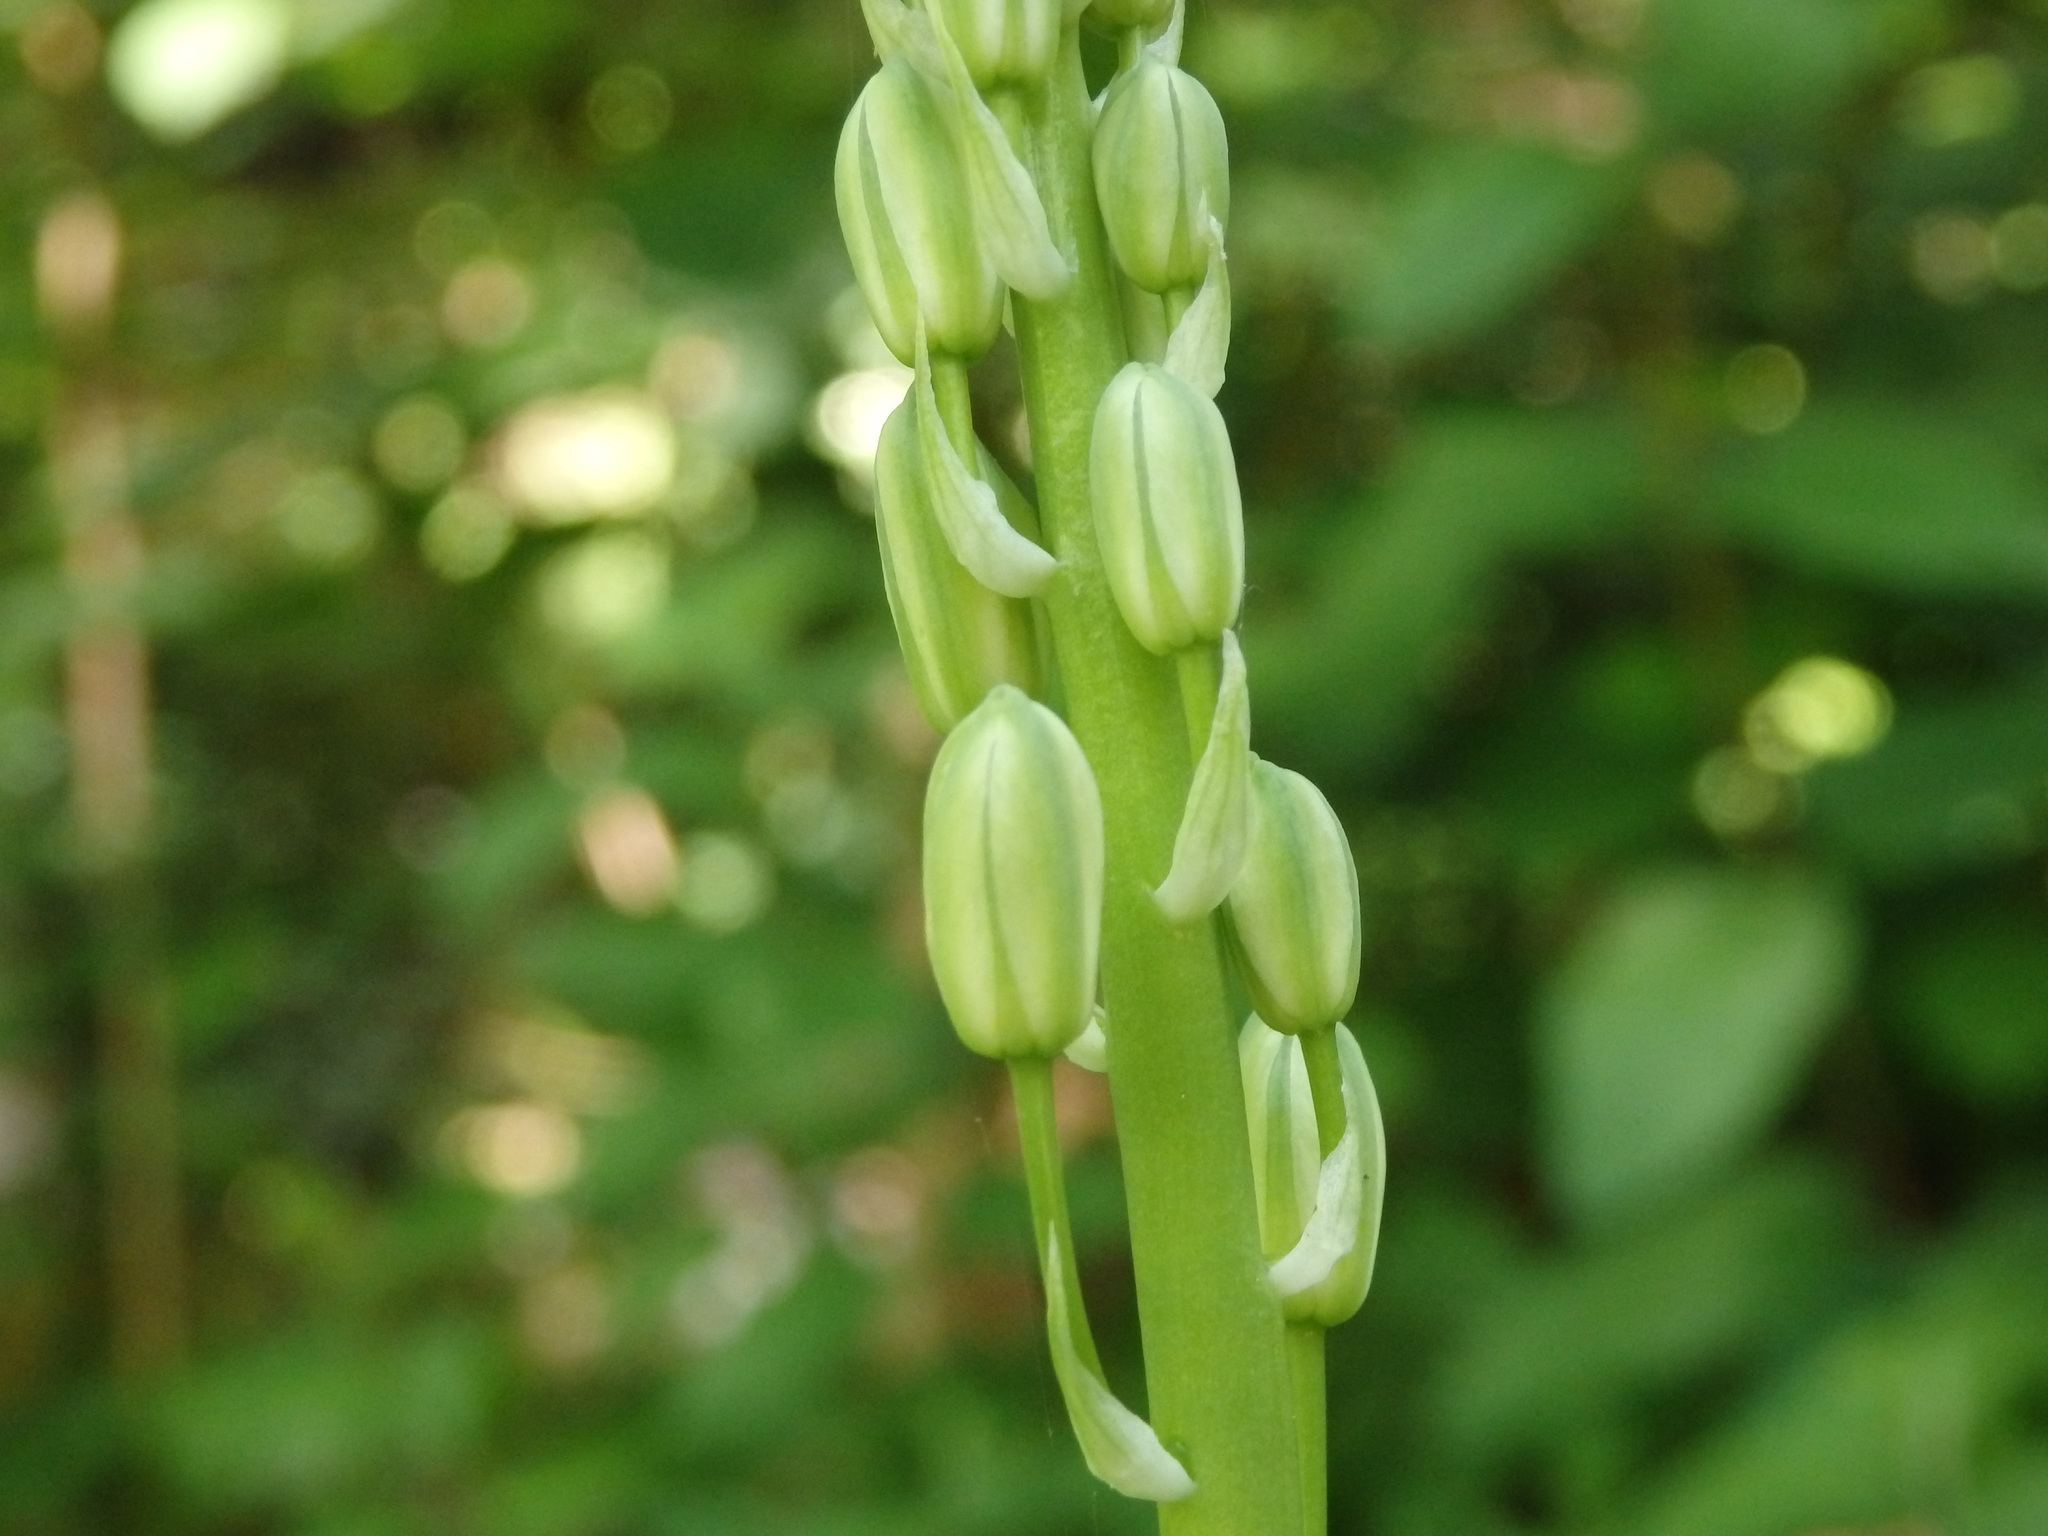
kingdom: Plantae
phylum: Tracheophyta
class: Liliopsida
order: Asparagales
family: Asparagaceae
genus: Ornithogalum
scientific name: Ornithogalum pyrenaicum
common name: Spiked star-of-bethlehem
